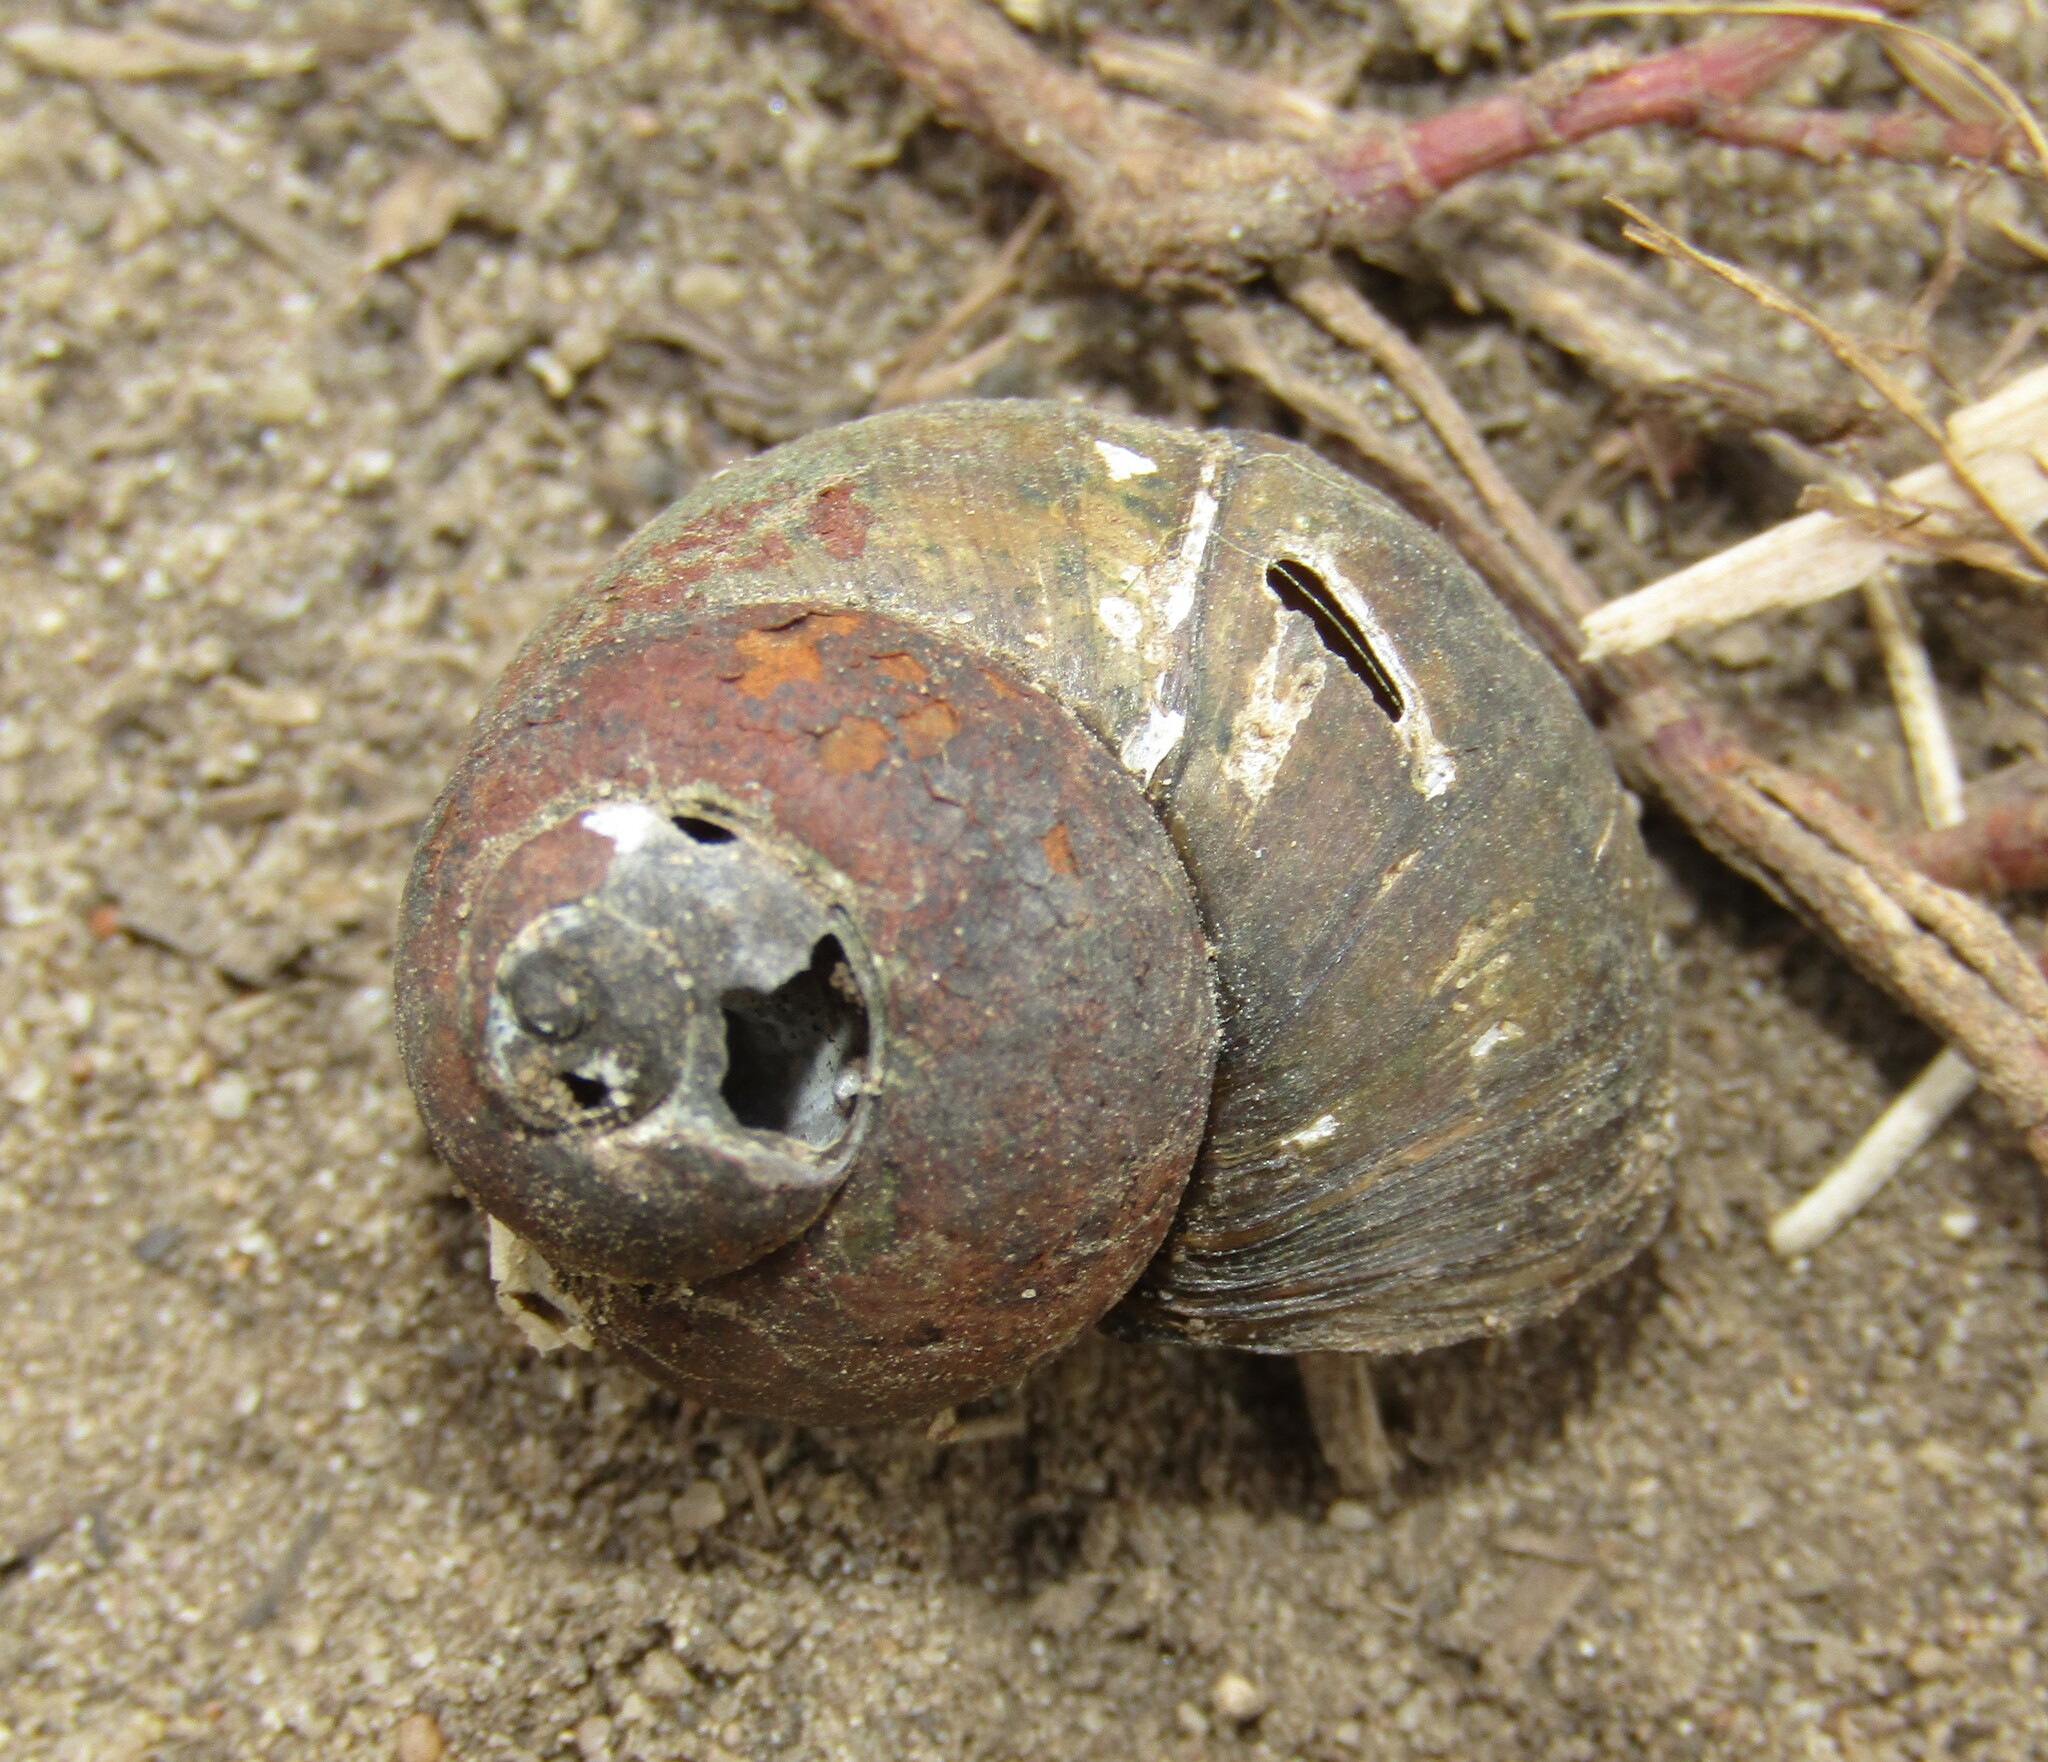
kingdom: Animalia
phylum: Mollusca
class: Gastropoda
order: Architaenioglossa
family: Viviparidae
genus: Viviparus
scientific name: Viviparus viviparus
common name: River snail
